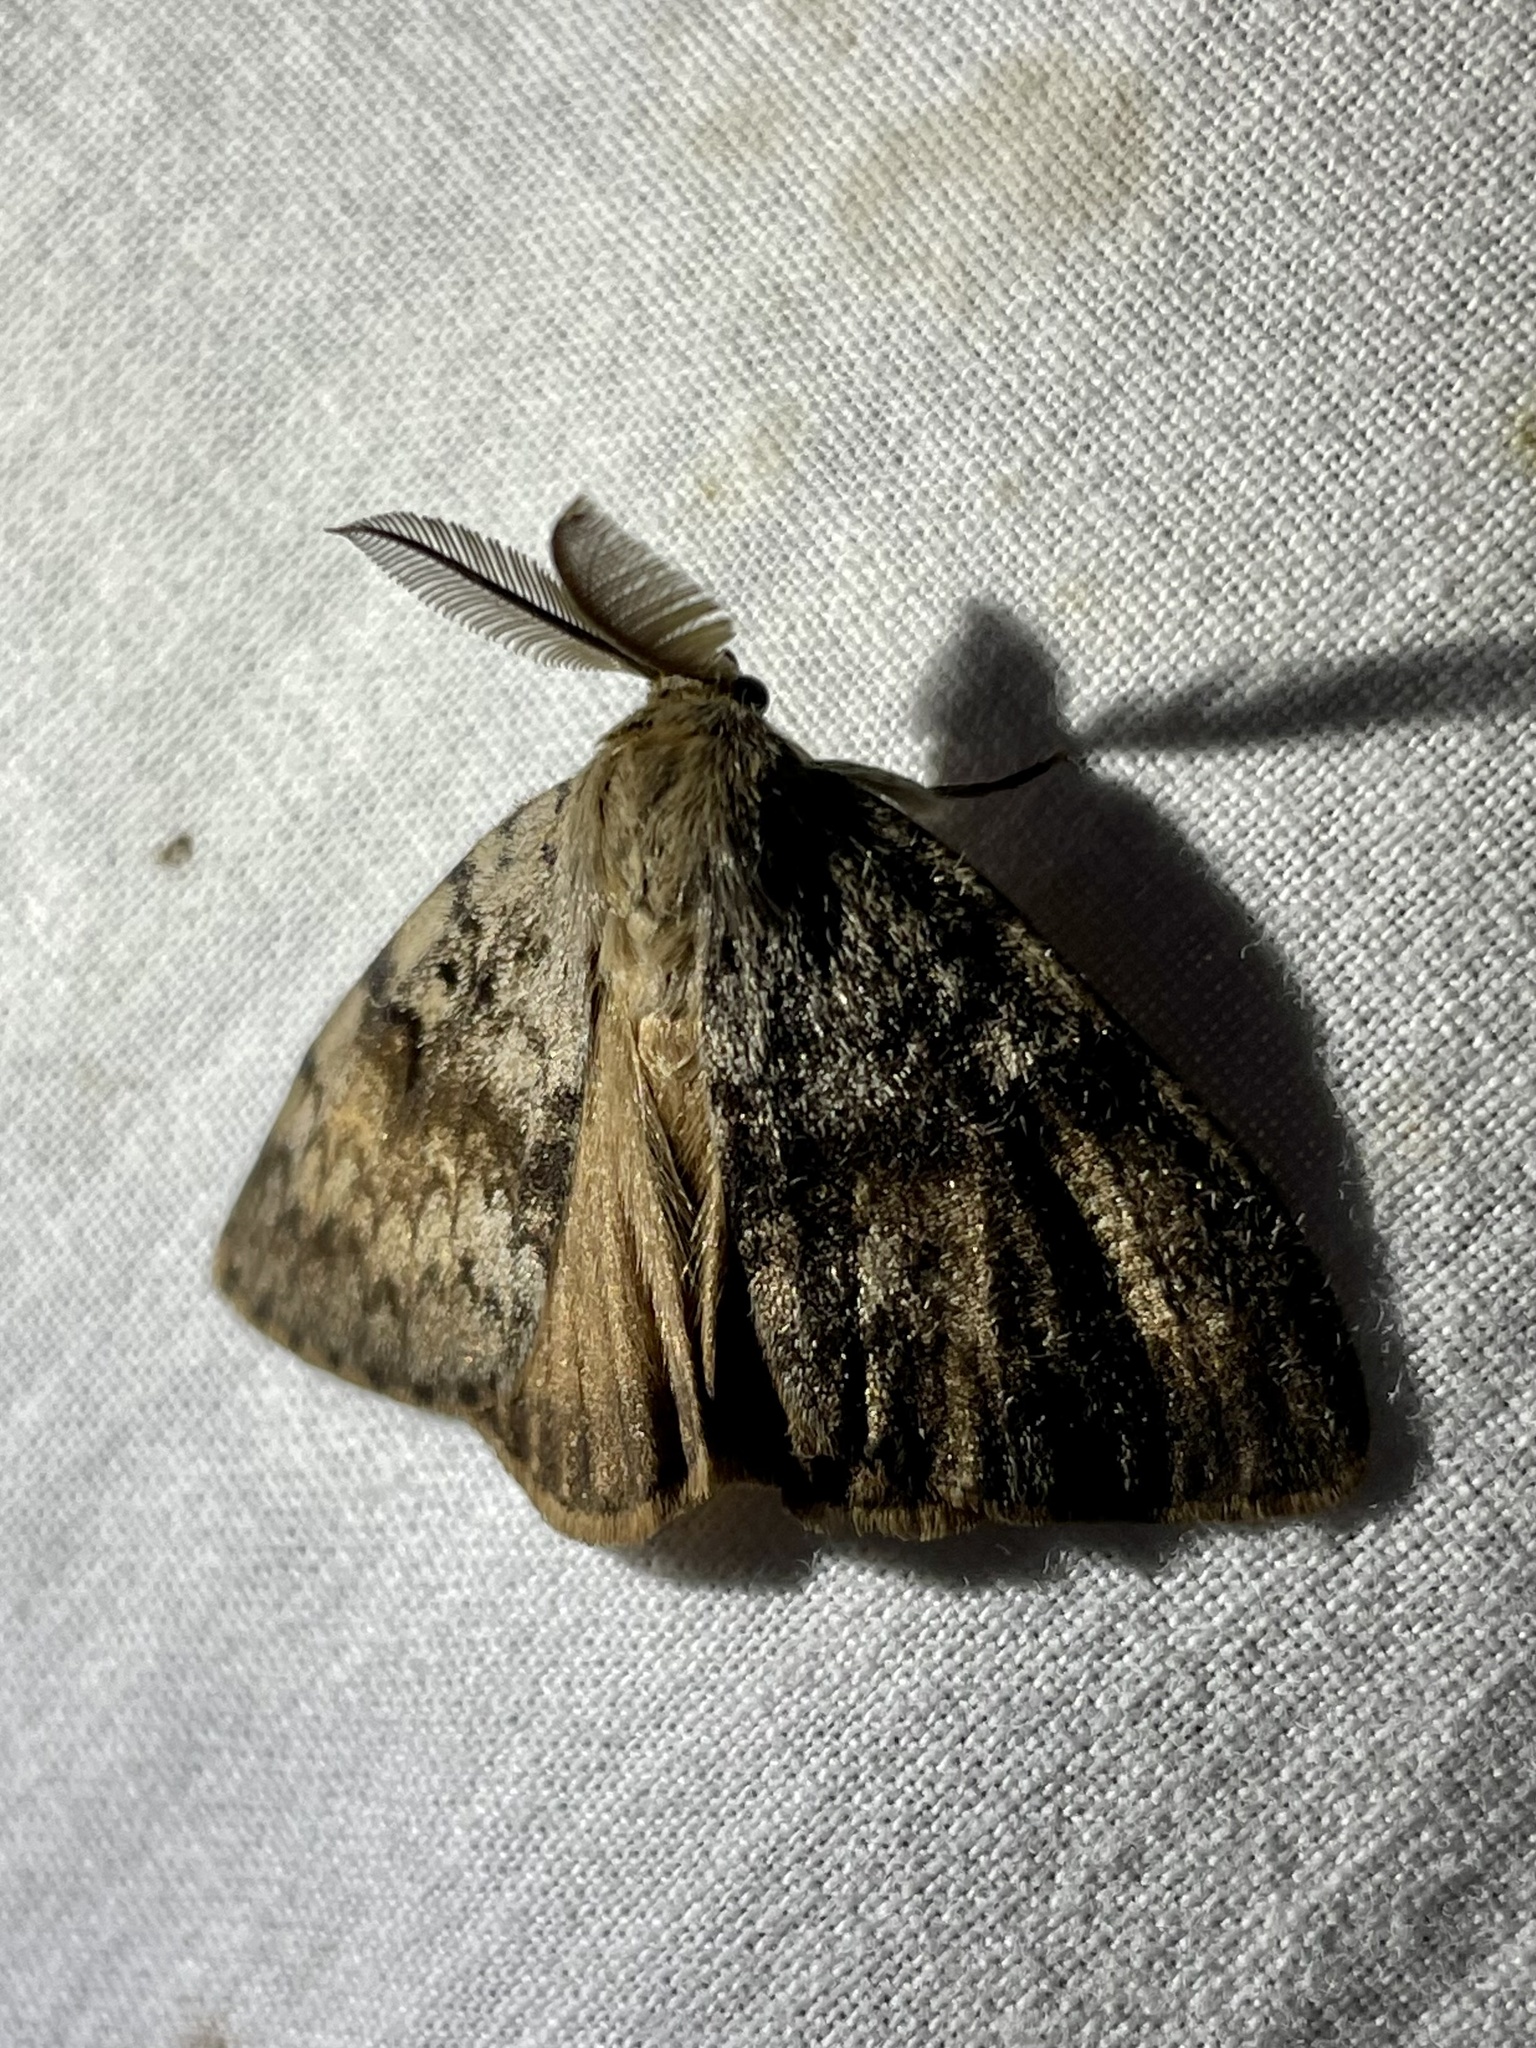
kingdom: Animalia
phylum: Arthropoda
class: Insecta
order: Lepidoptera
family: Erebidae
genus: Lymantria
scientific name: Lymantria dispar
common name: Gypsy moth
